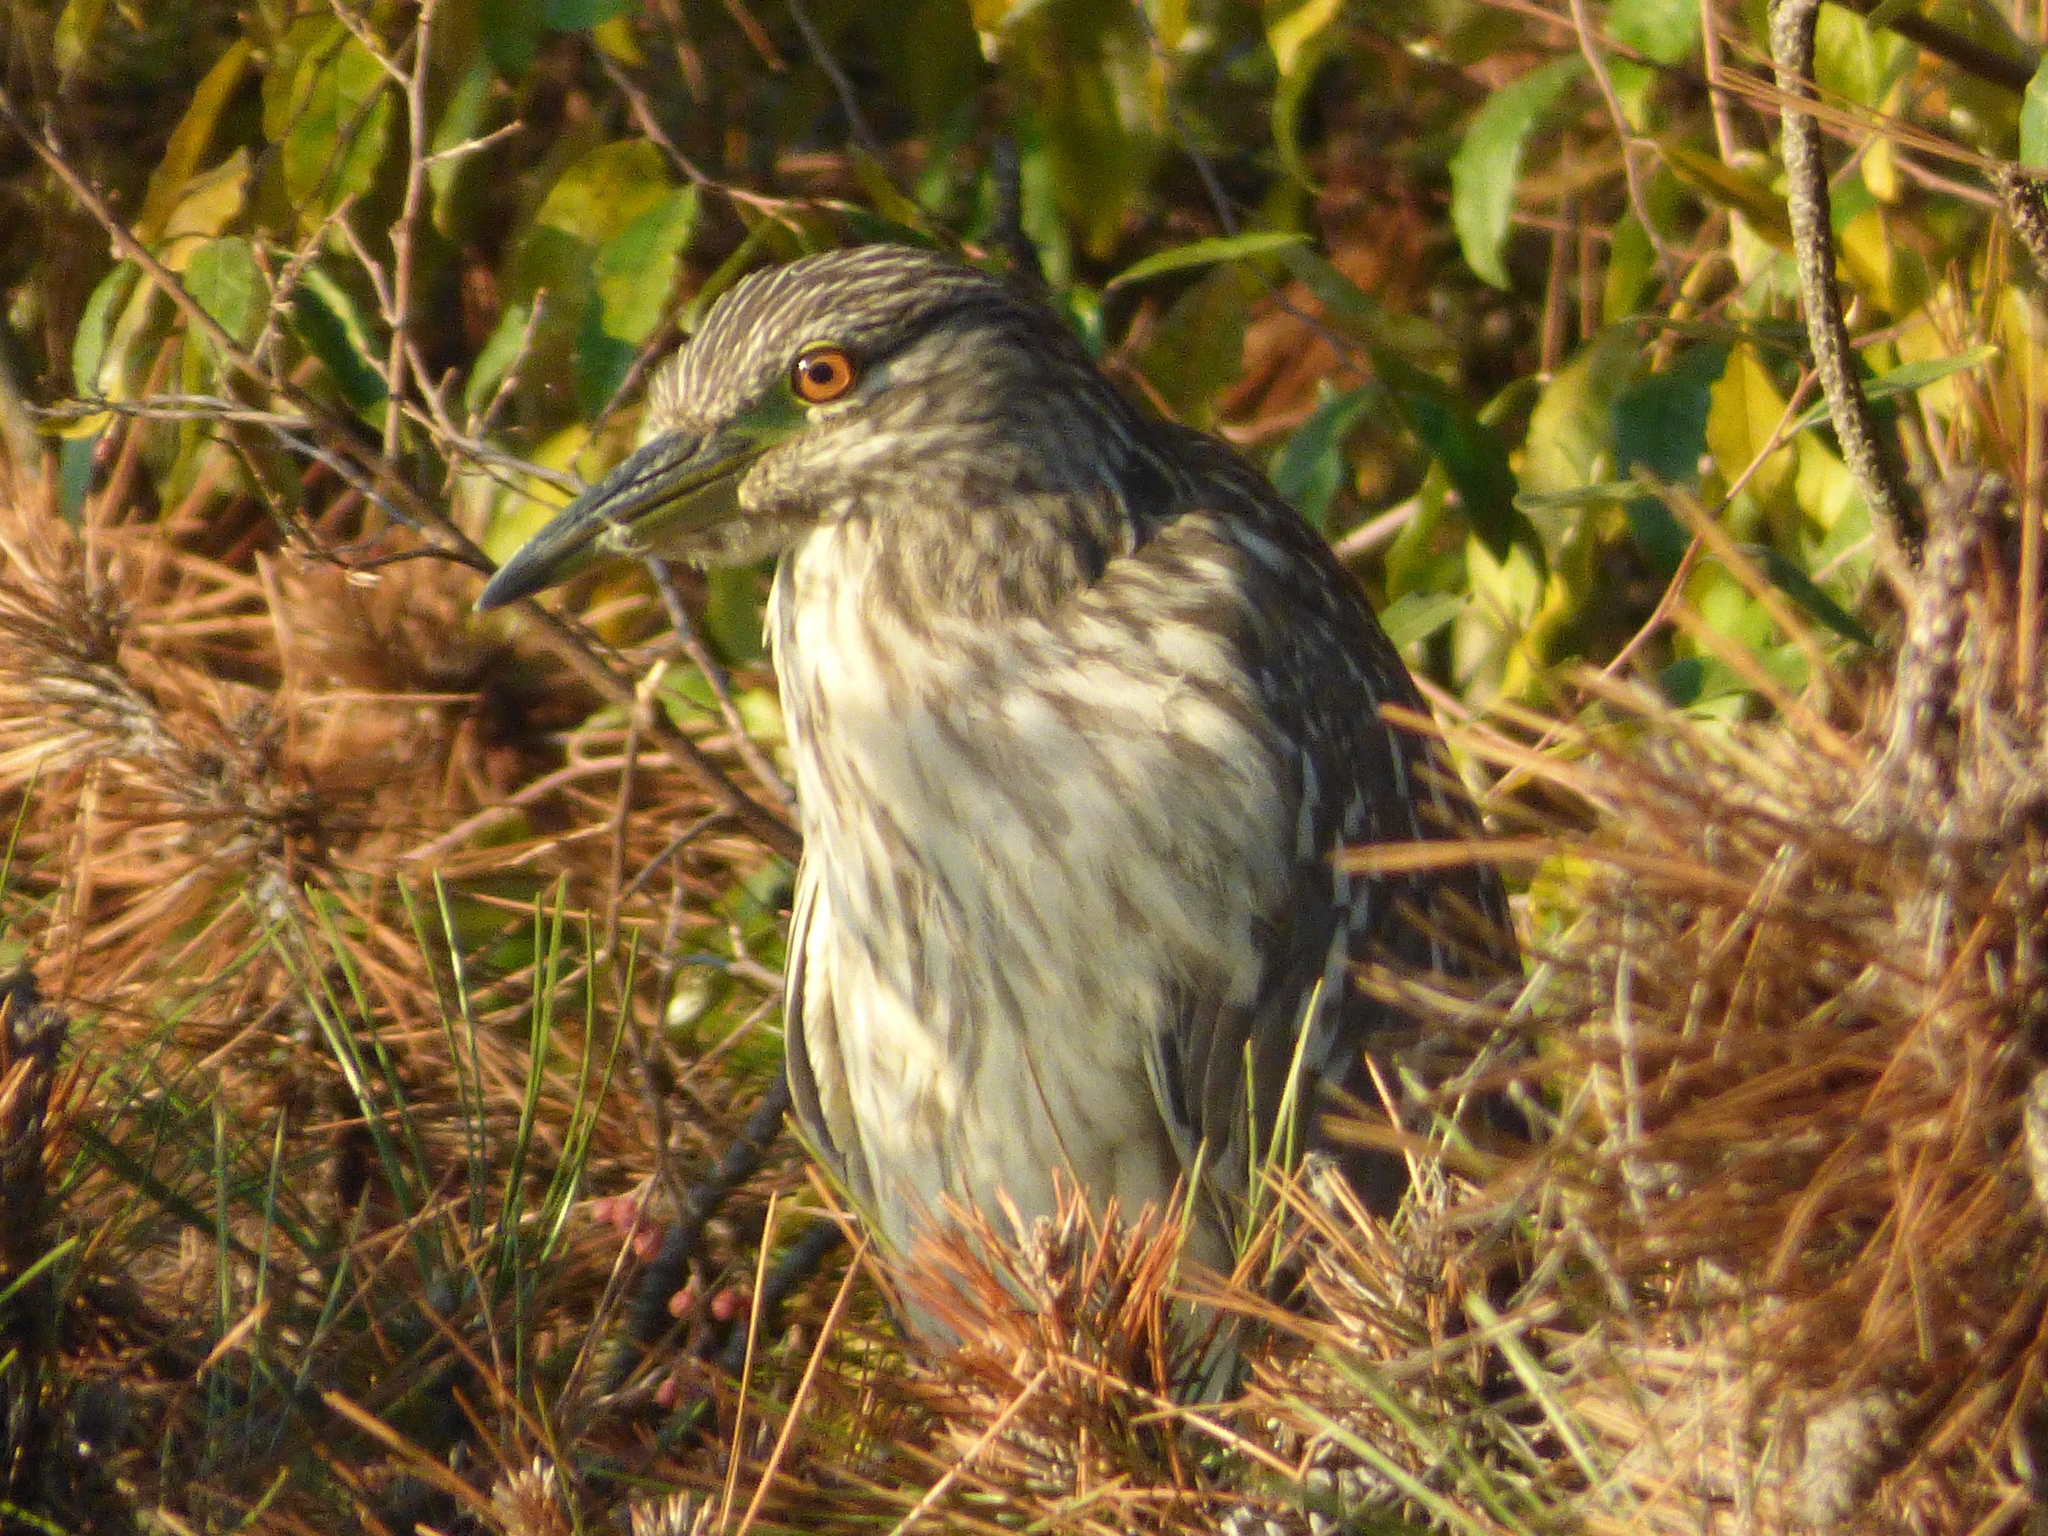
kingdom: Animalia
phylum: Chordata
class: Aves
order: Pelecaniformes
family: Ardeidae
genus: Nycticorax
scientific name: Nycticorax nycticorax
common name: Black-crowned night heron
